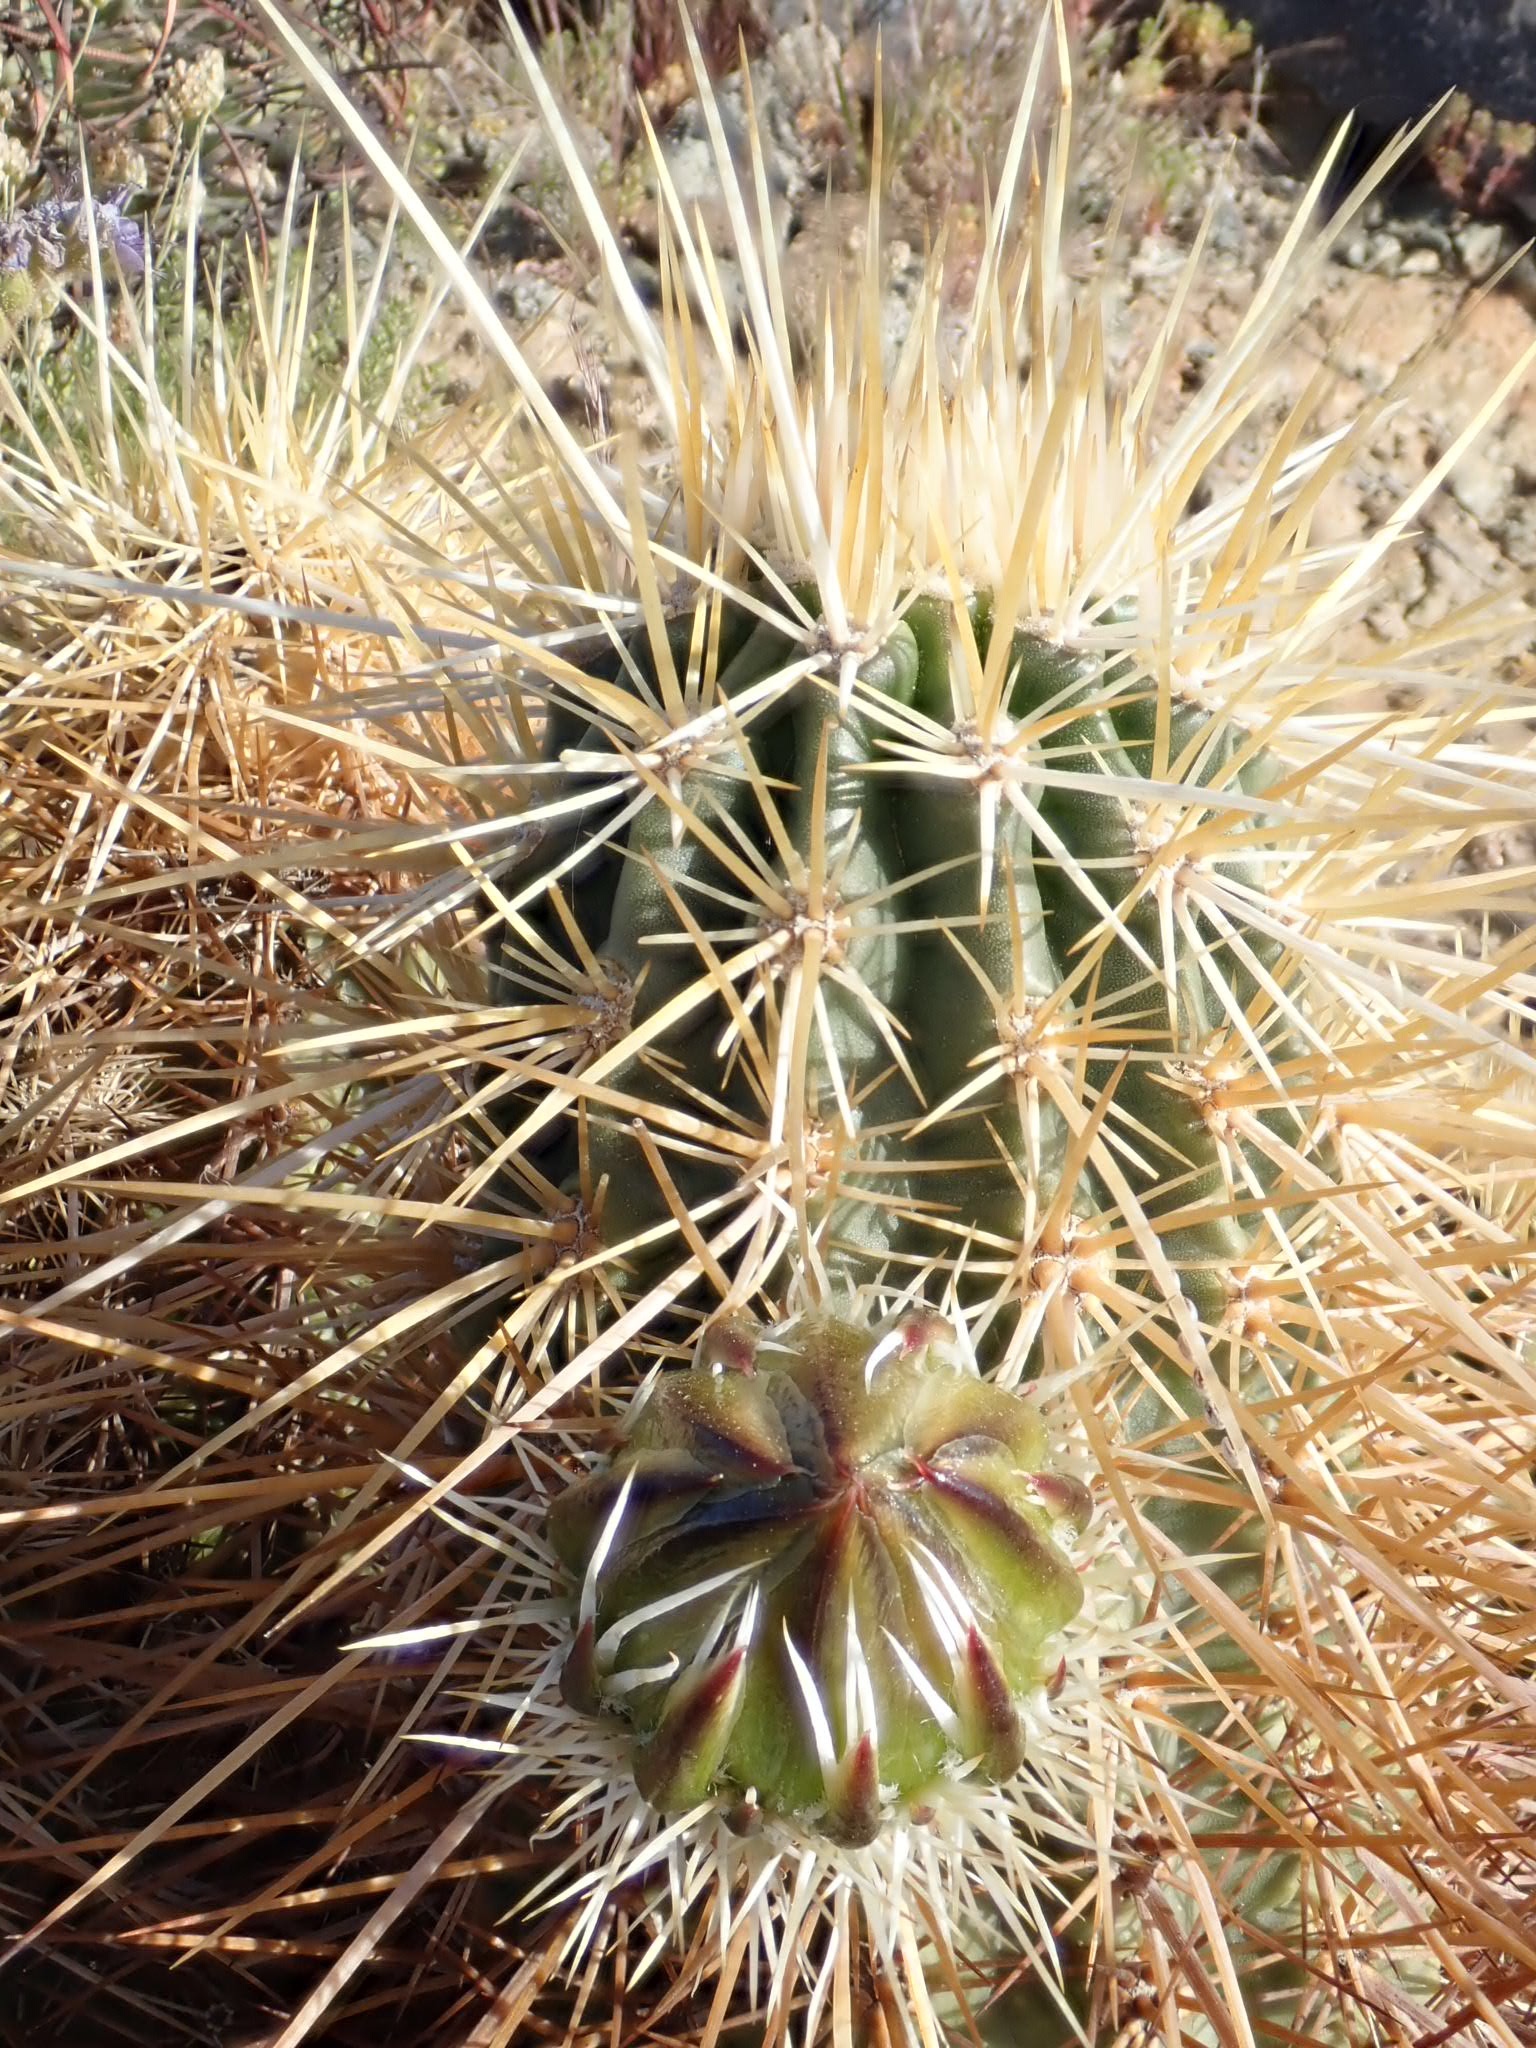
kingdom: Plantae
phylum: Tracheophyta
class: Magnoliopsida
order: Caryophyllales
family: Cactaceae
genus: Echinocereus
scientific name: Echinocereus engelmannii
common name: Engelmann's hedgehog cactus
